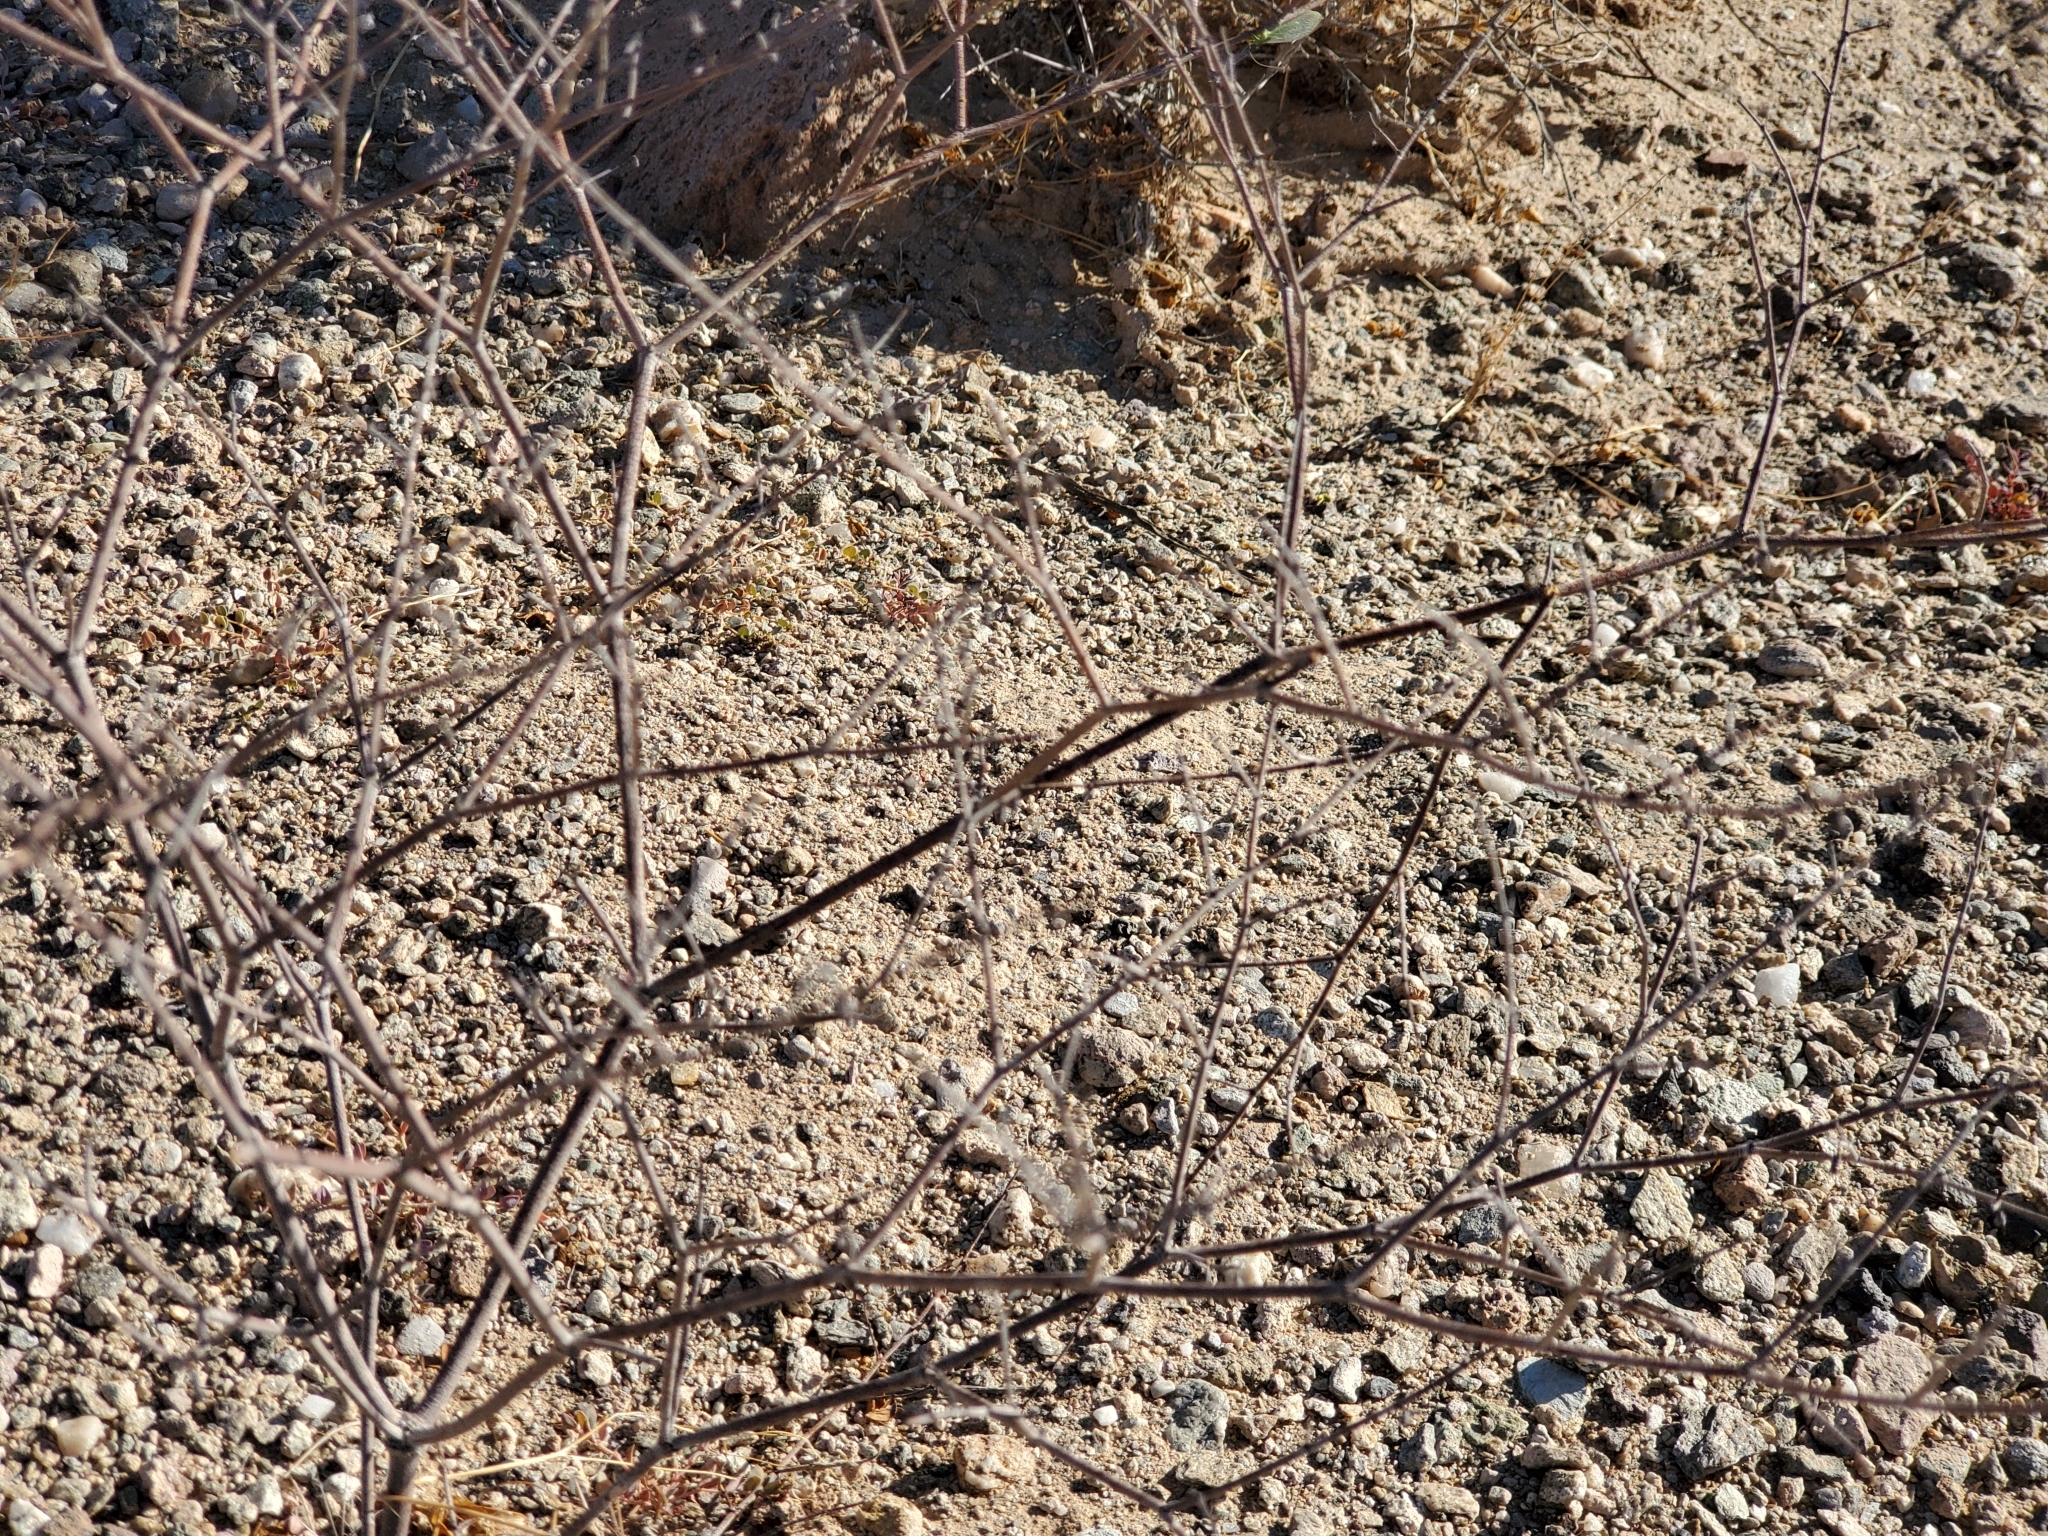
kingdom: Plantae
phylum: Tracheophyta
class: Magnoliopsida
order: Caryophyllales
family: Polygonaceae
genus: Eriogonum
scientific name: Eriogonum deflexum
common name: Skeleton-weed
